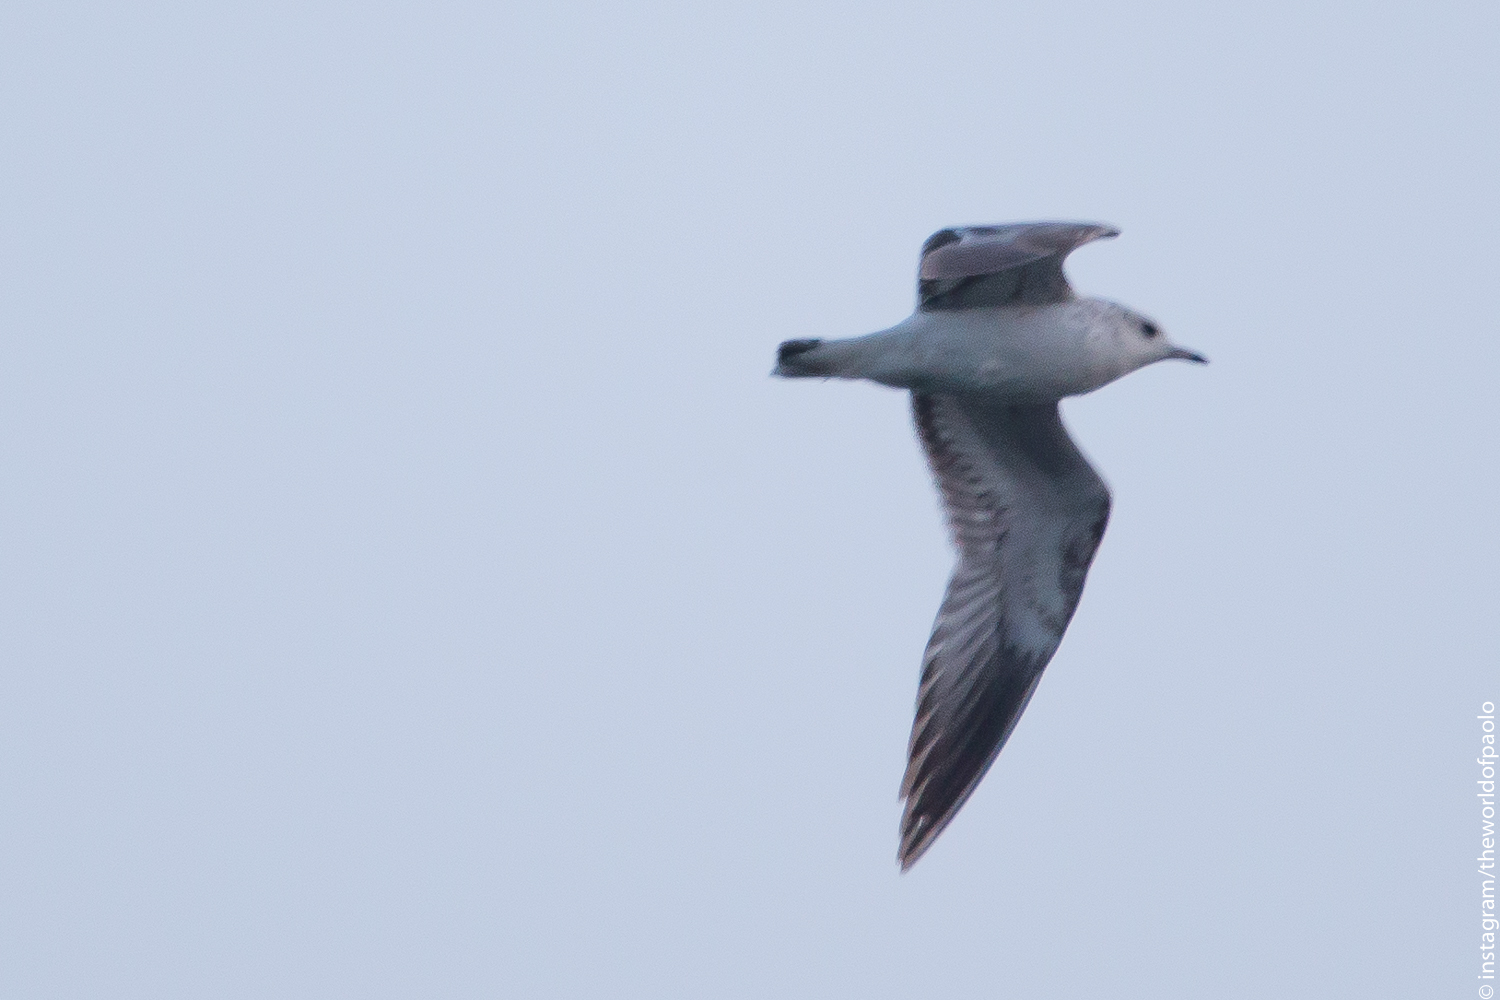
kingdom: Animalia
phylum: Chordata
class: Aves
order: Charadriiformes
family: Laridae
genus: Larus
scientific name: Larus canus
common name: Mew gull
